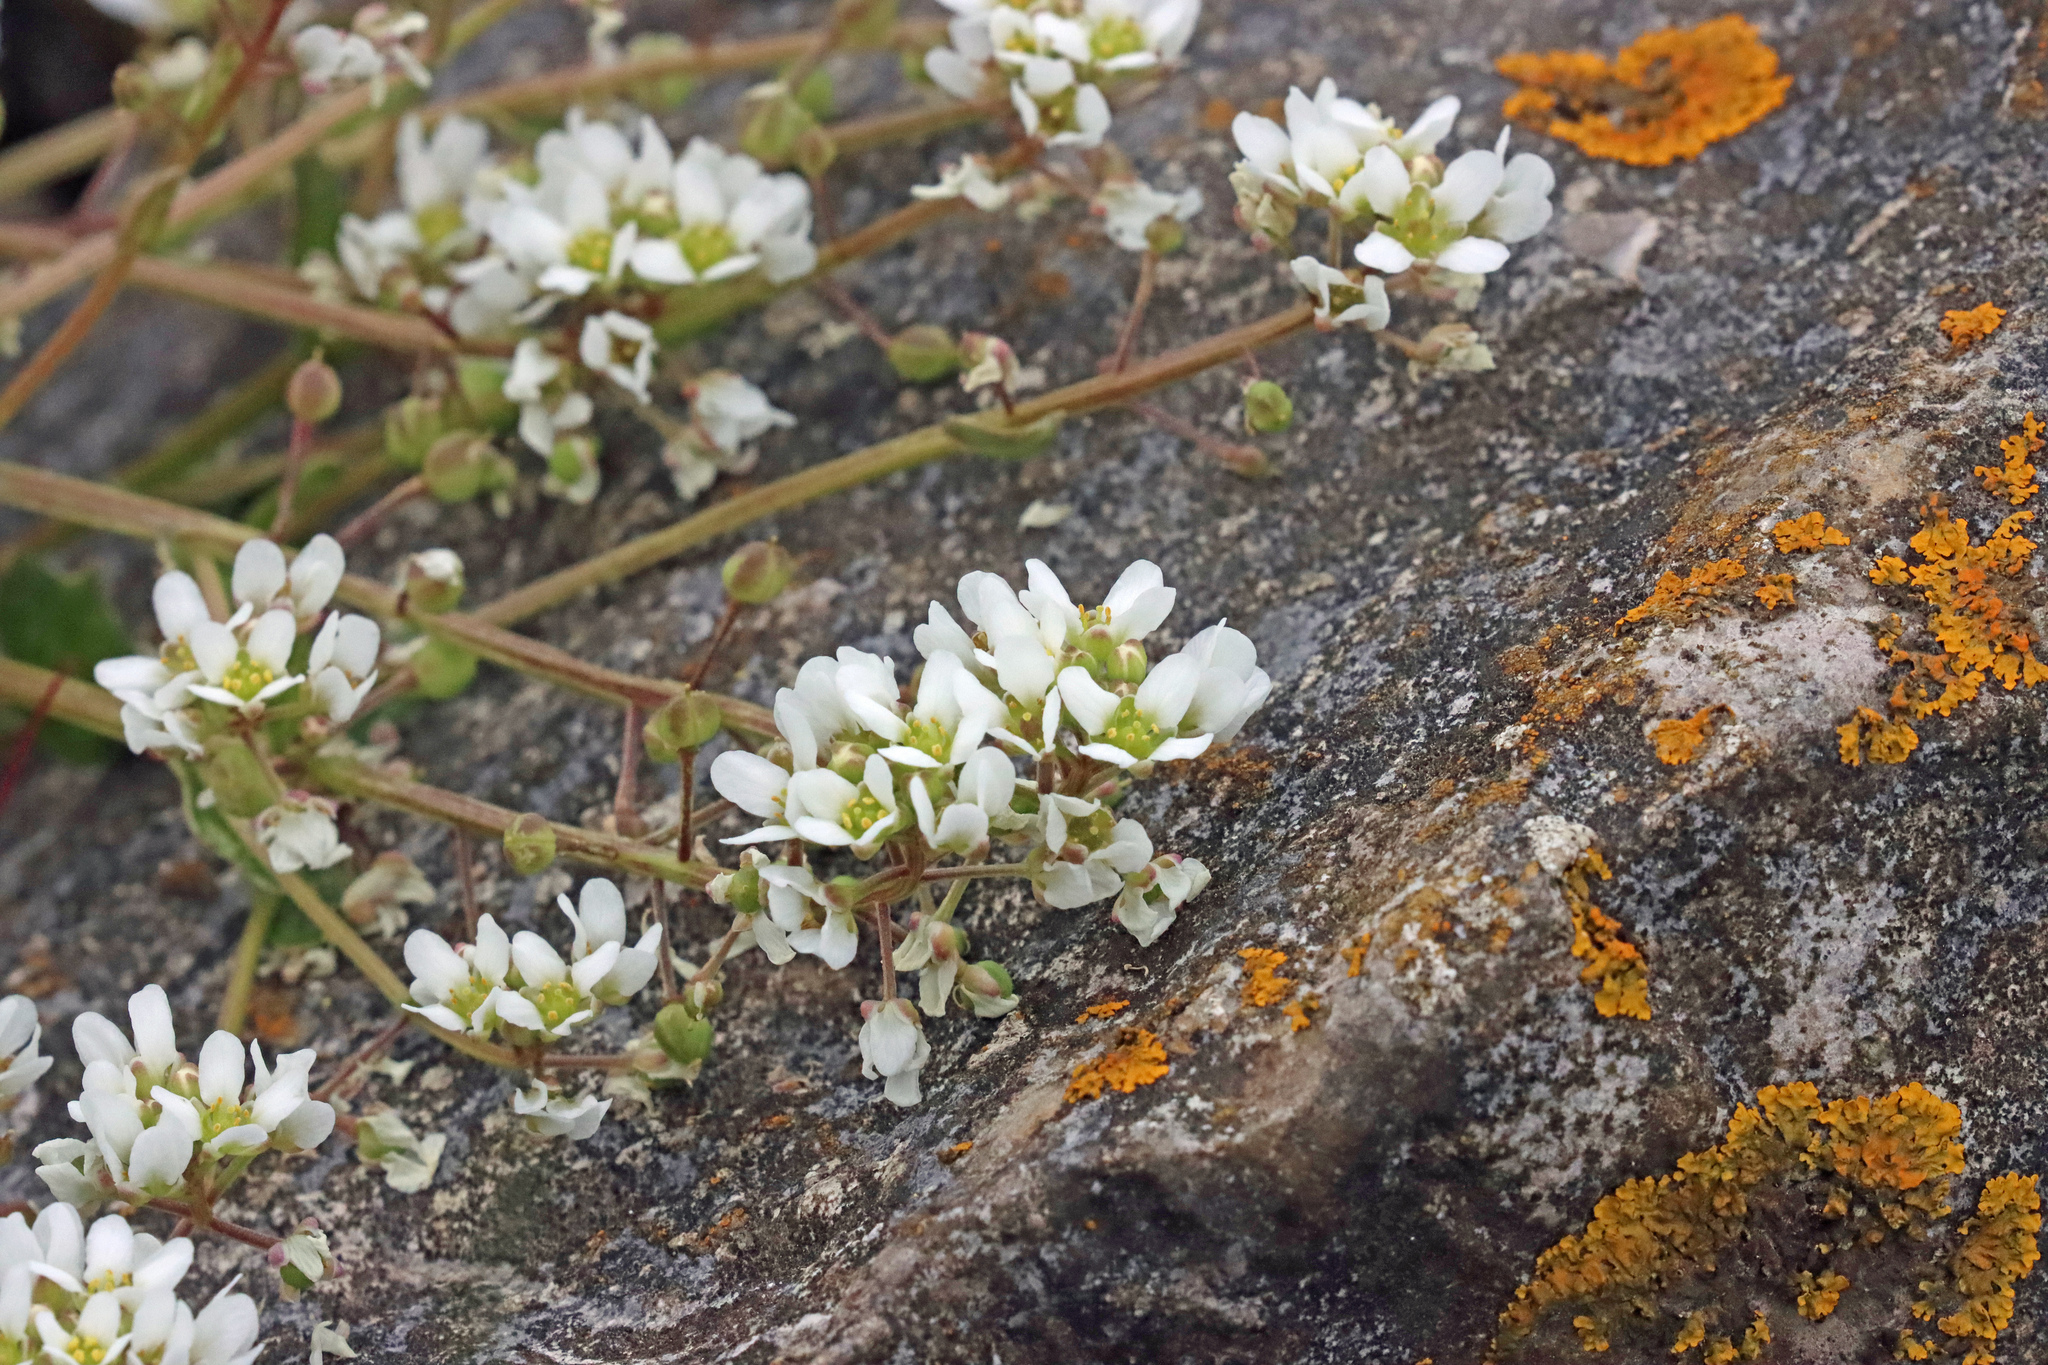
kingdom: Plantae
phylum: Tracheophyta
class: Magnoliopsida
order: Brassicales
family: Brassicaceae
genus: Cochlearia
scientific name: Cochlearia officinalis
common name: Scurvy-grass
